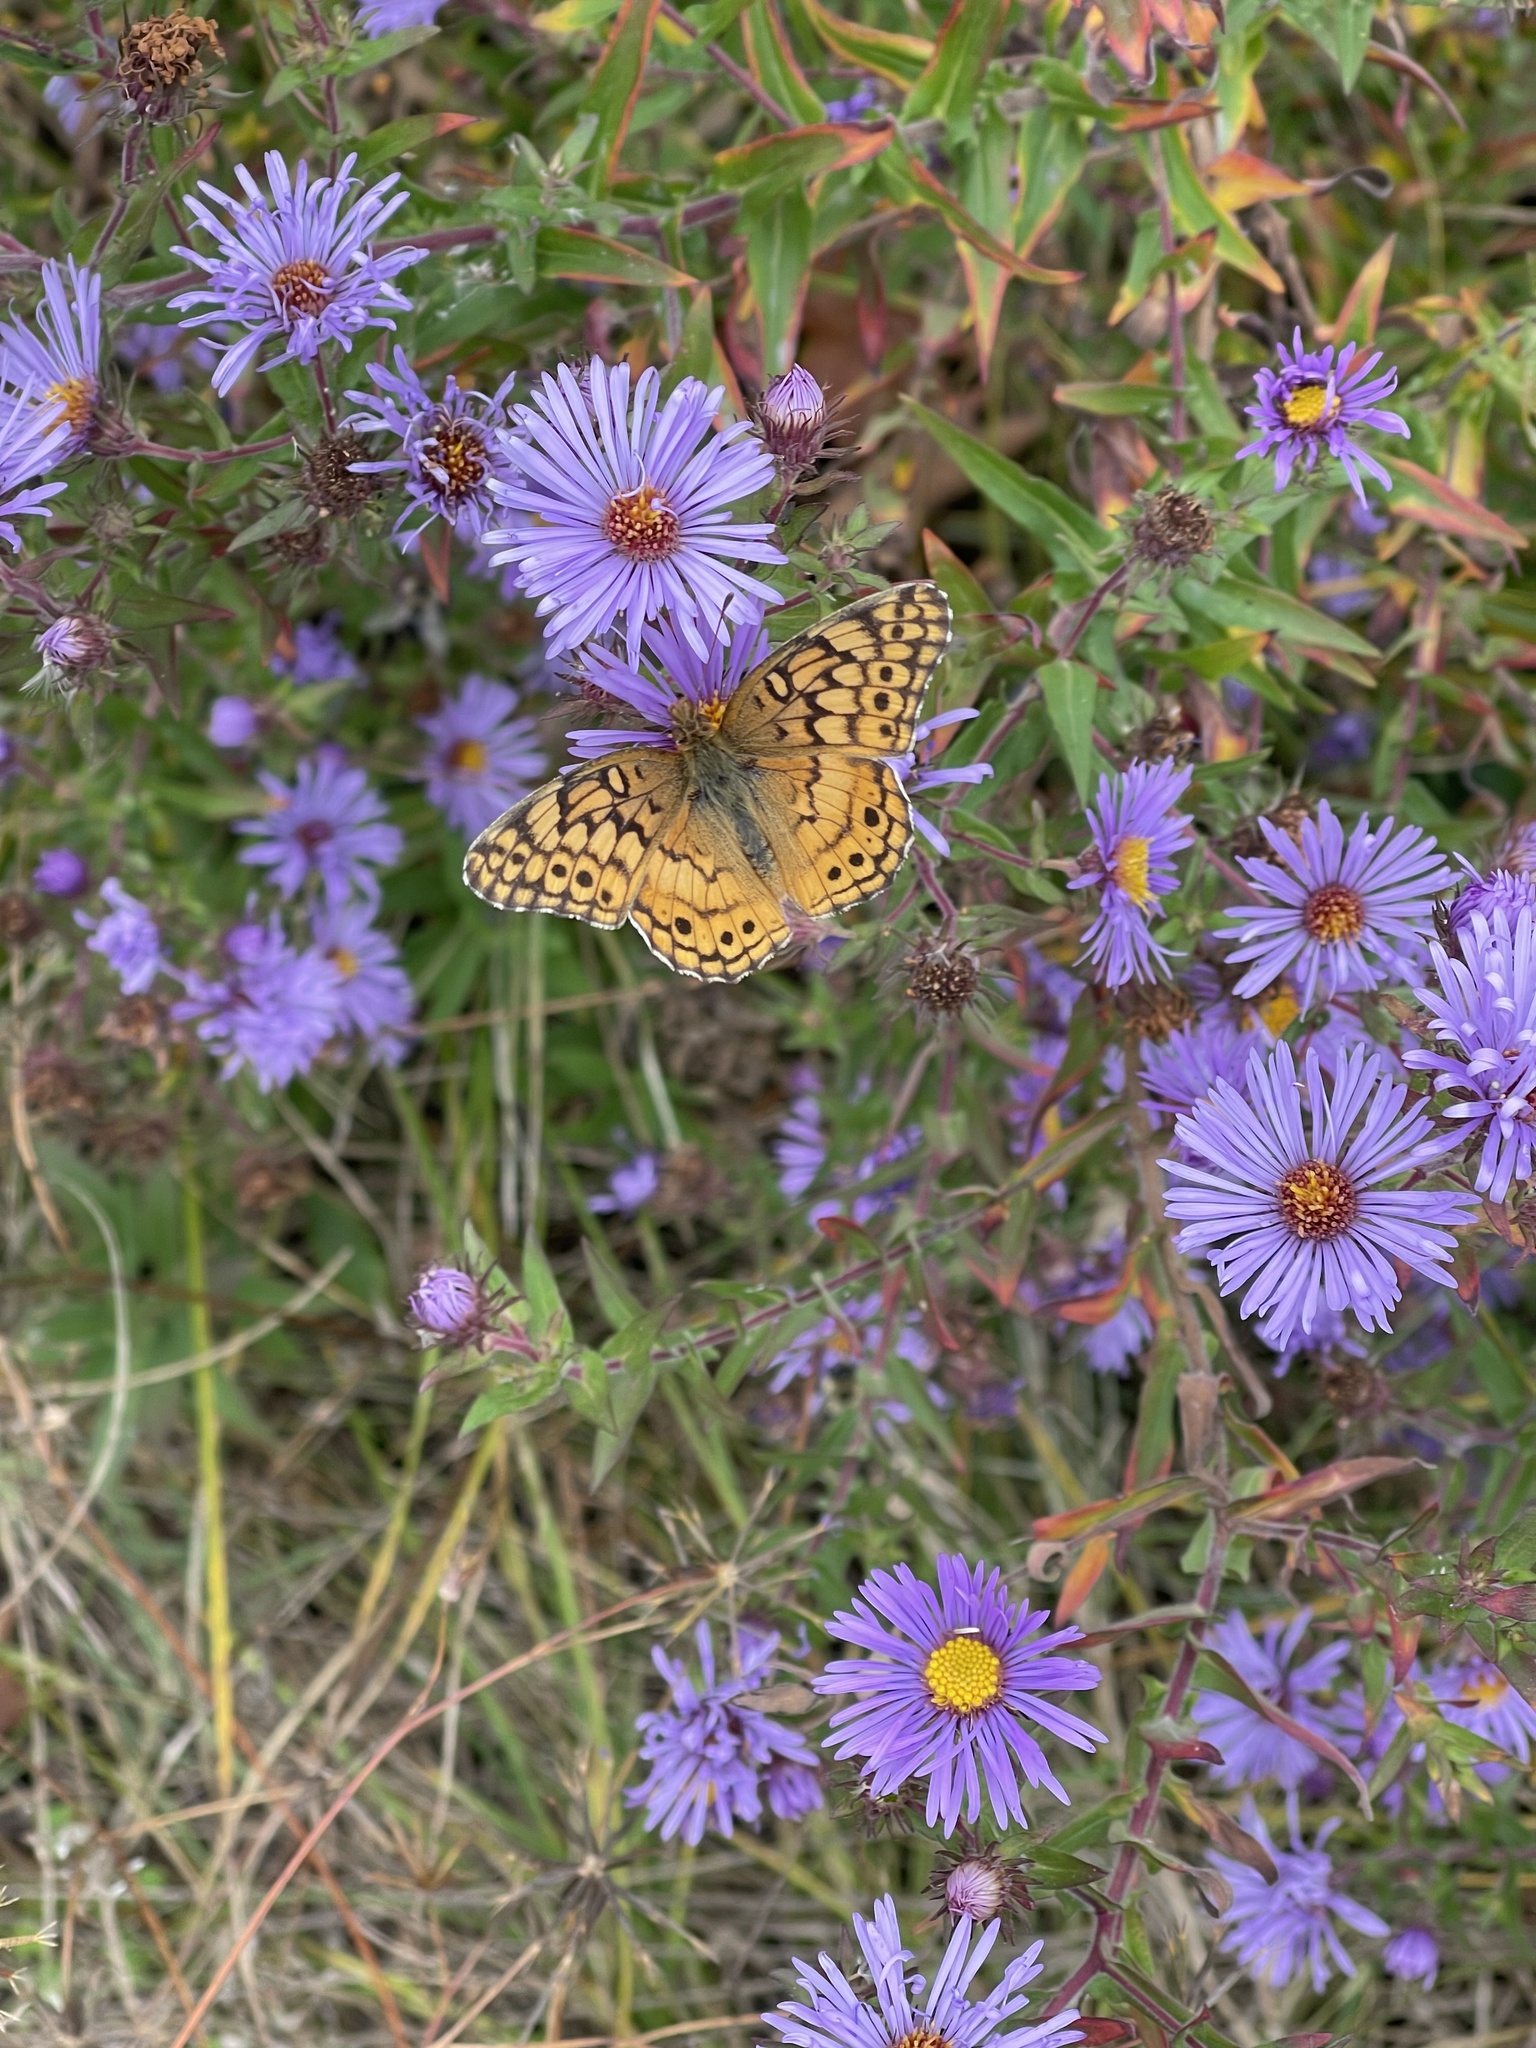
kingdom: Animalia
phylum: Arthropoda
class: Insecta
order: Lepidoptera
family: Nymphalidae
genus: Euptoieta
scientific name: Euptoieta claudia
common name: Variegated fritillary
